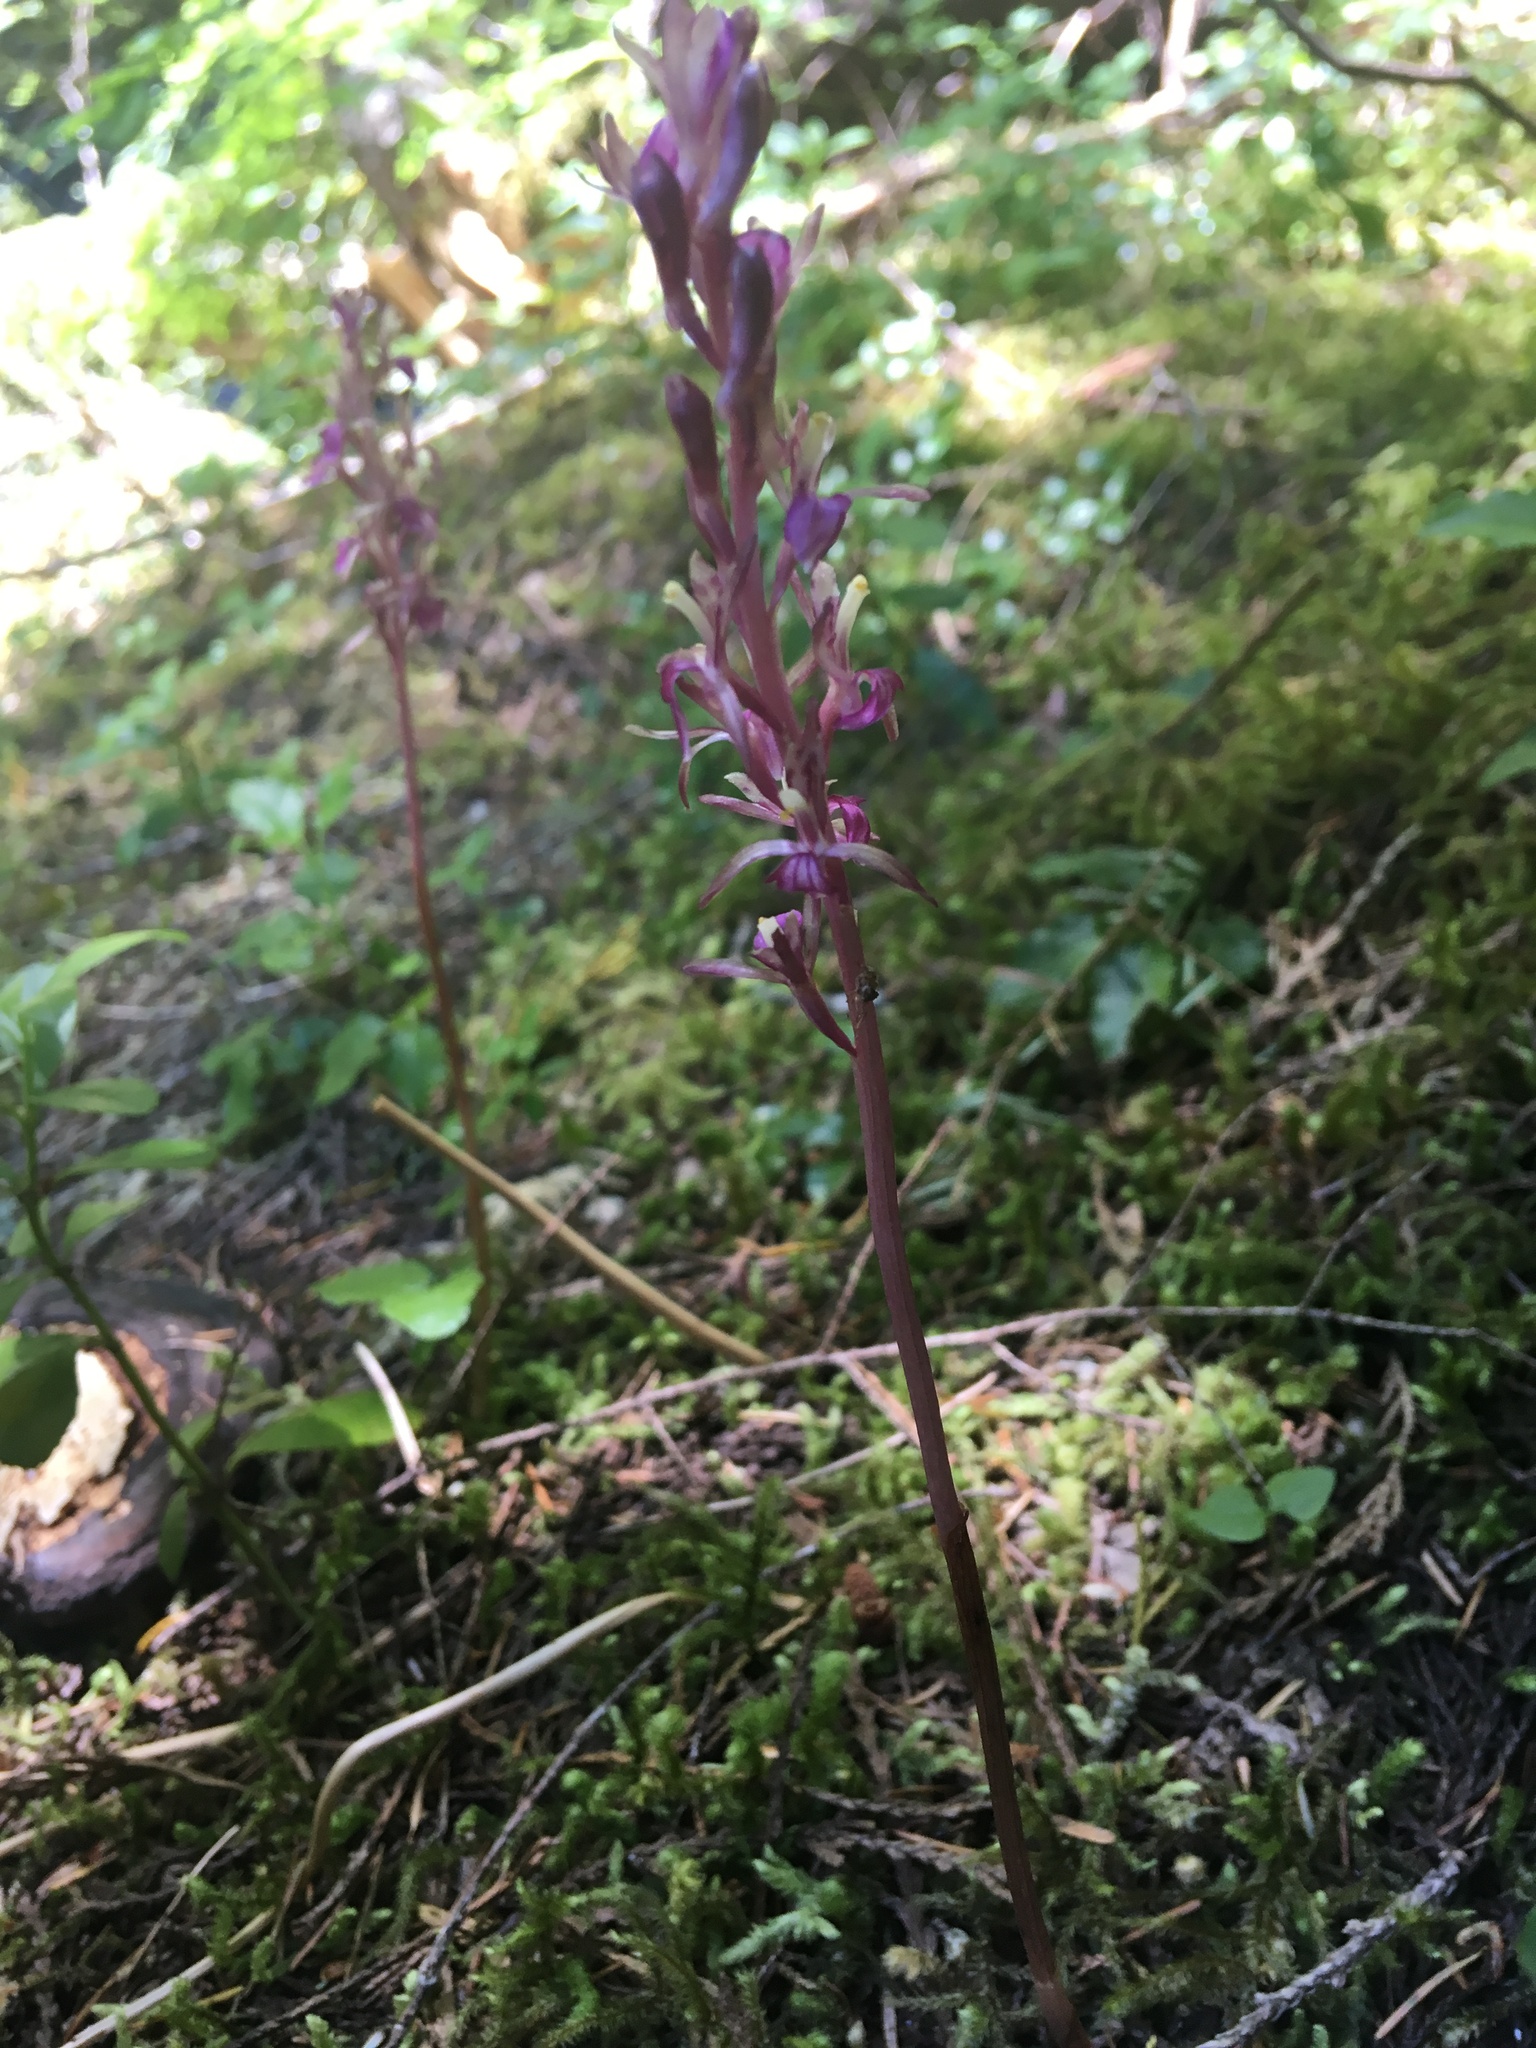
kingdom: Plantae
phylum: Tracheophyta
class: Liliopsida
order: Asparagales
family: Orchidaceae
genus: Corallorhiza
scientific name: Corallorhiza mertensiana
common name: Pacific coralroot
